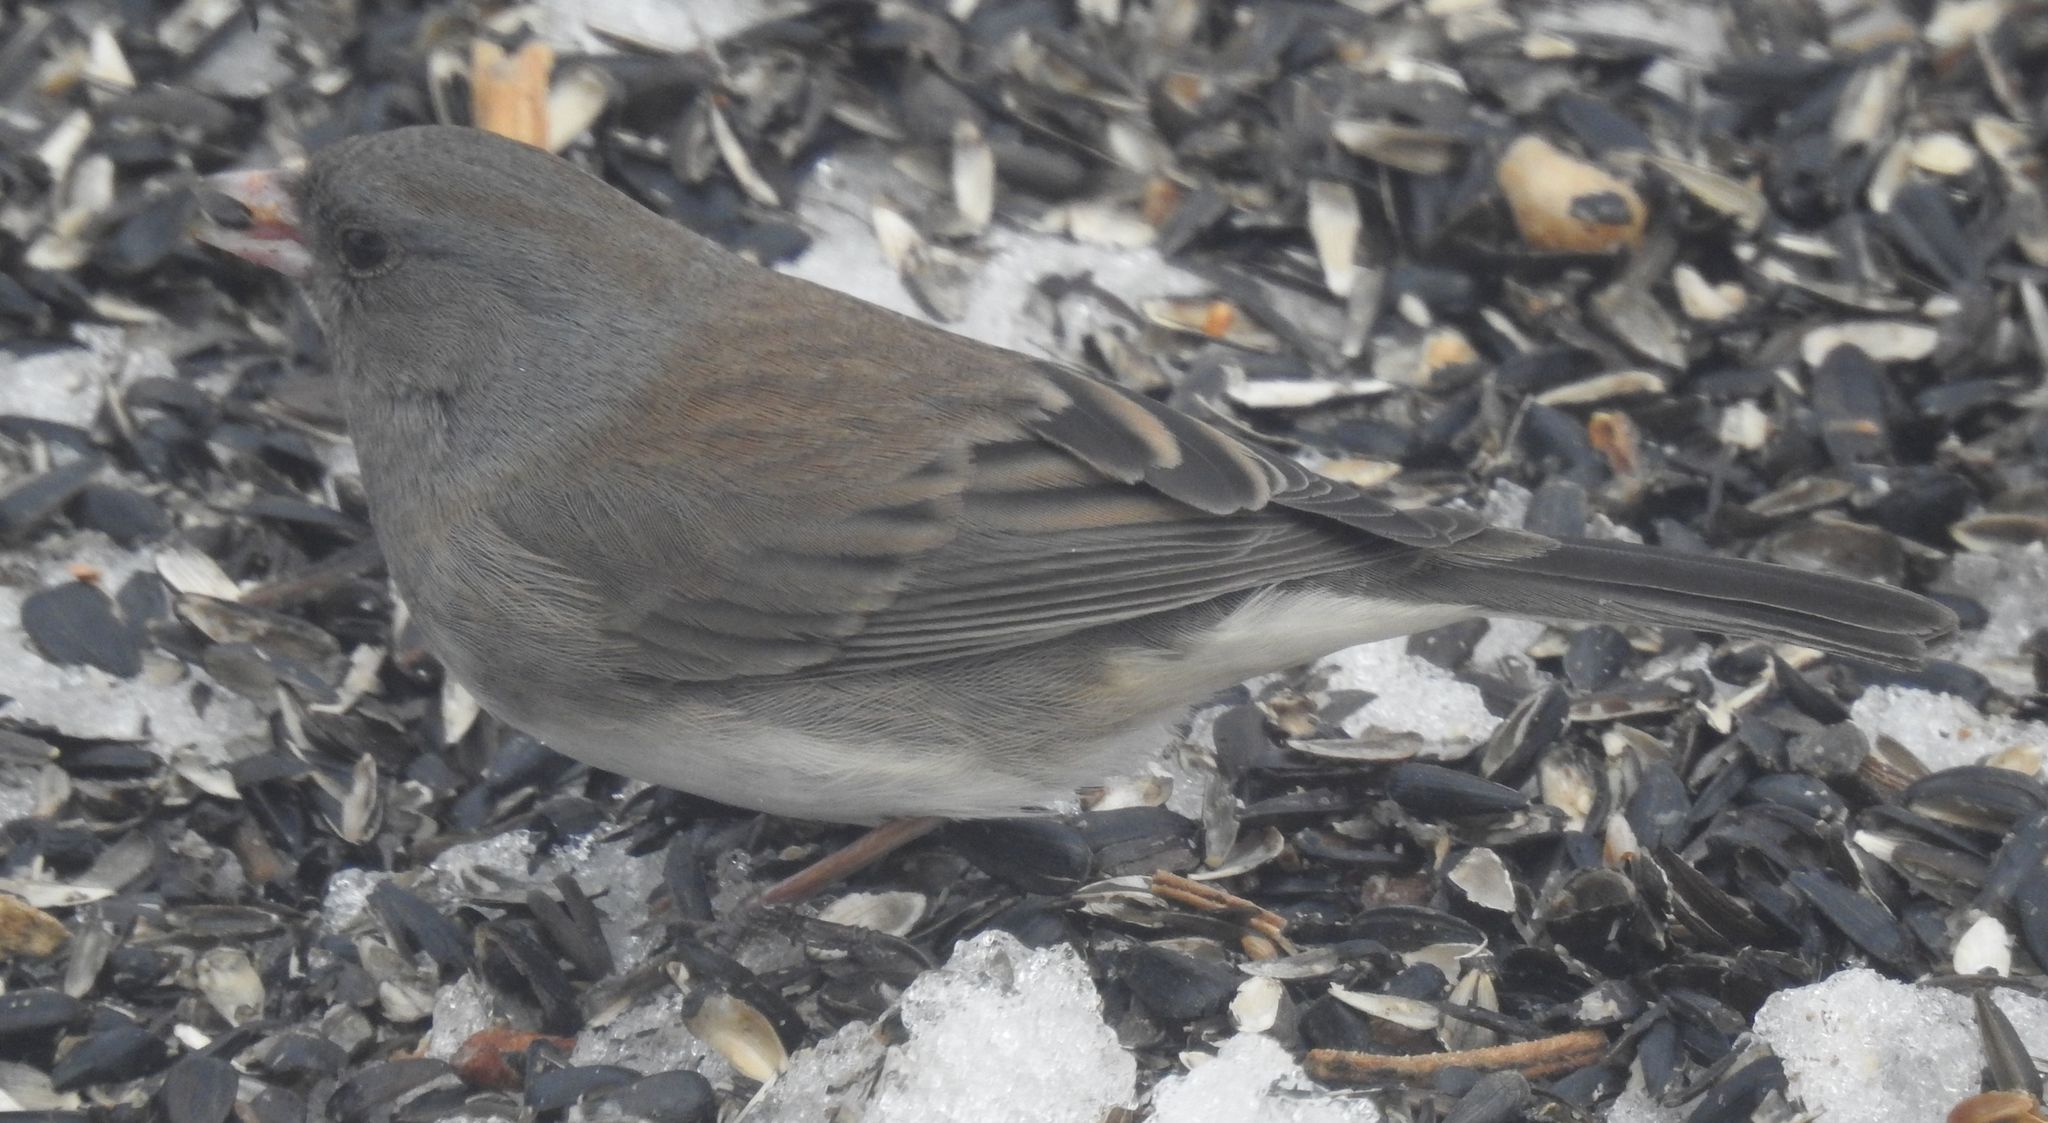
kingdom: Animalia
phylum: Chordata
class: Aves
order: Passeriformes
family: Passerellidae
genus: Junco
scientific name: Junco hyemalis
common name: Dark-eyed junco
